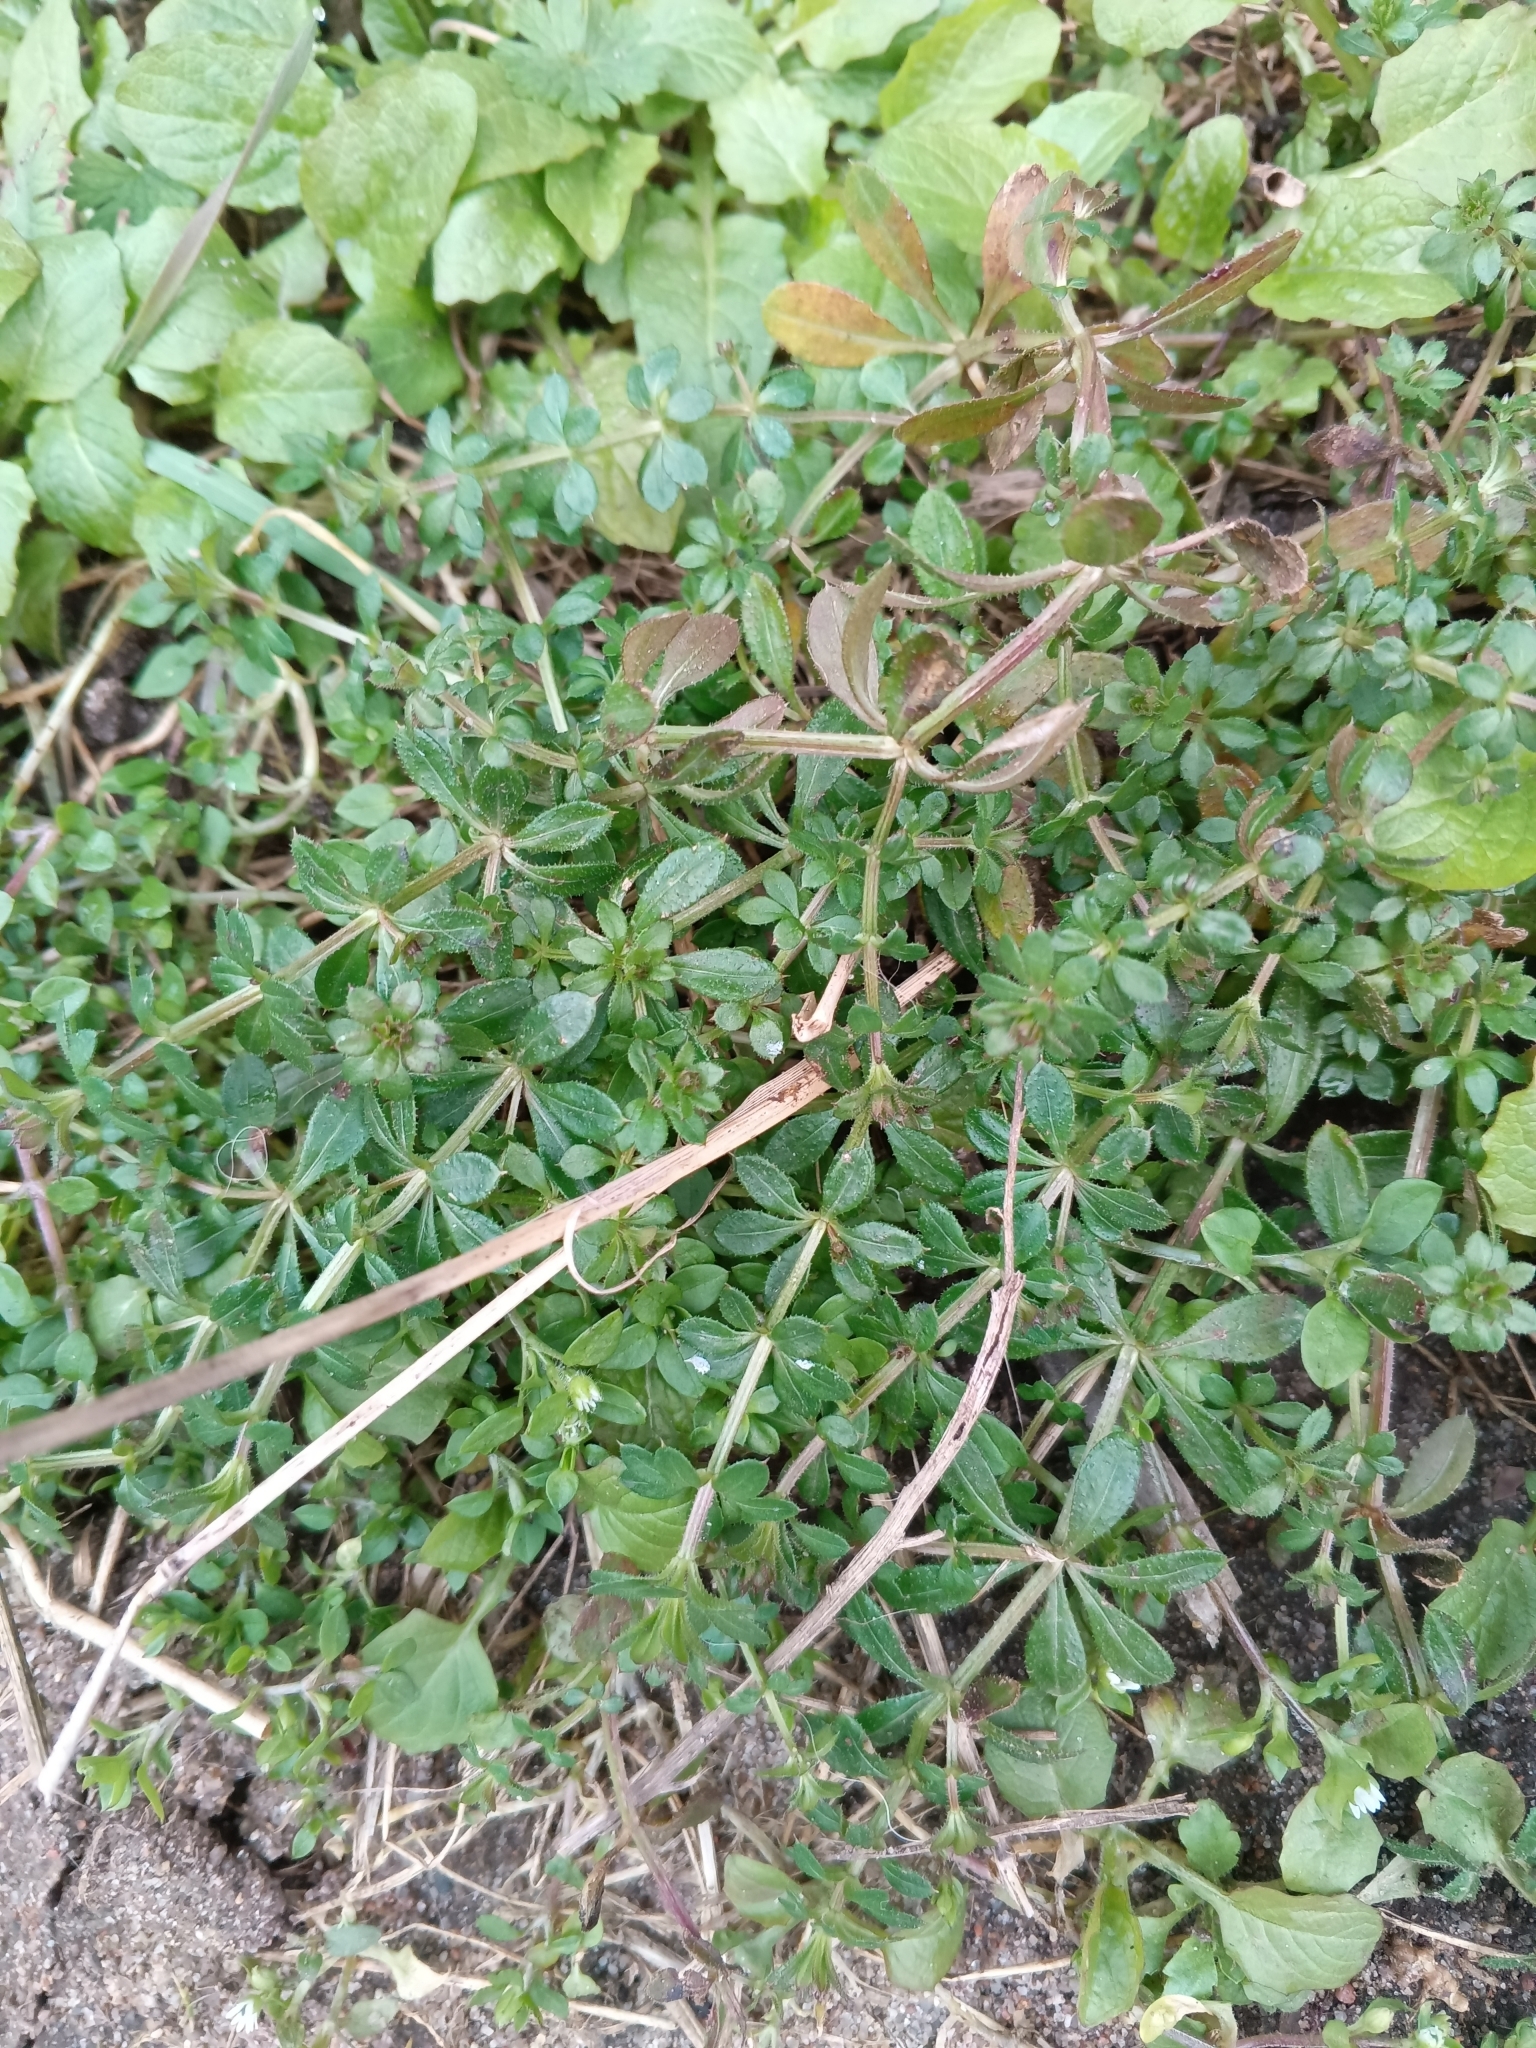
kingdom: Plantae
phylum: Tracheophyta
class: Magnoliopsida
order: Gentianales
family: Rubiaceae
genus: Galium
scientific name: Galium aparine
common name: Cleavers
